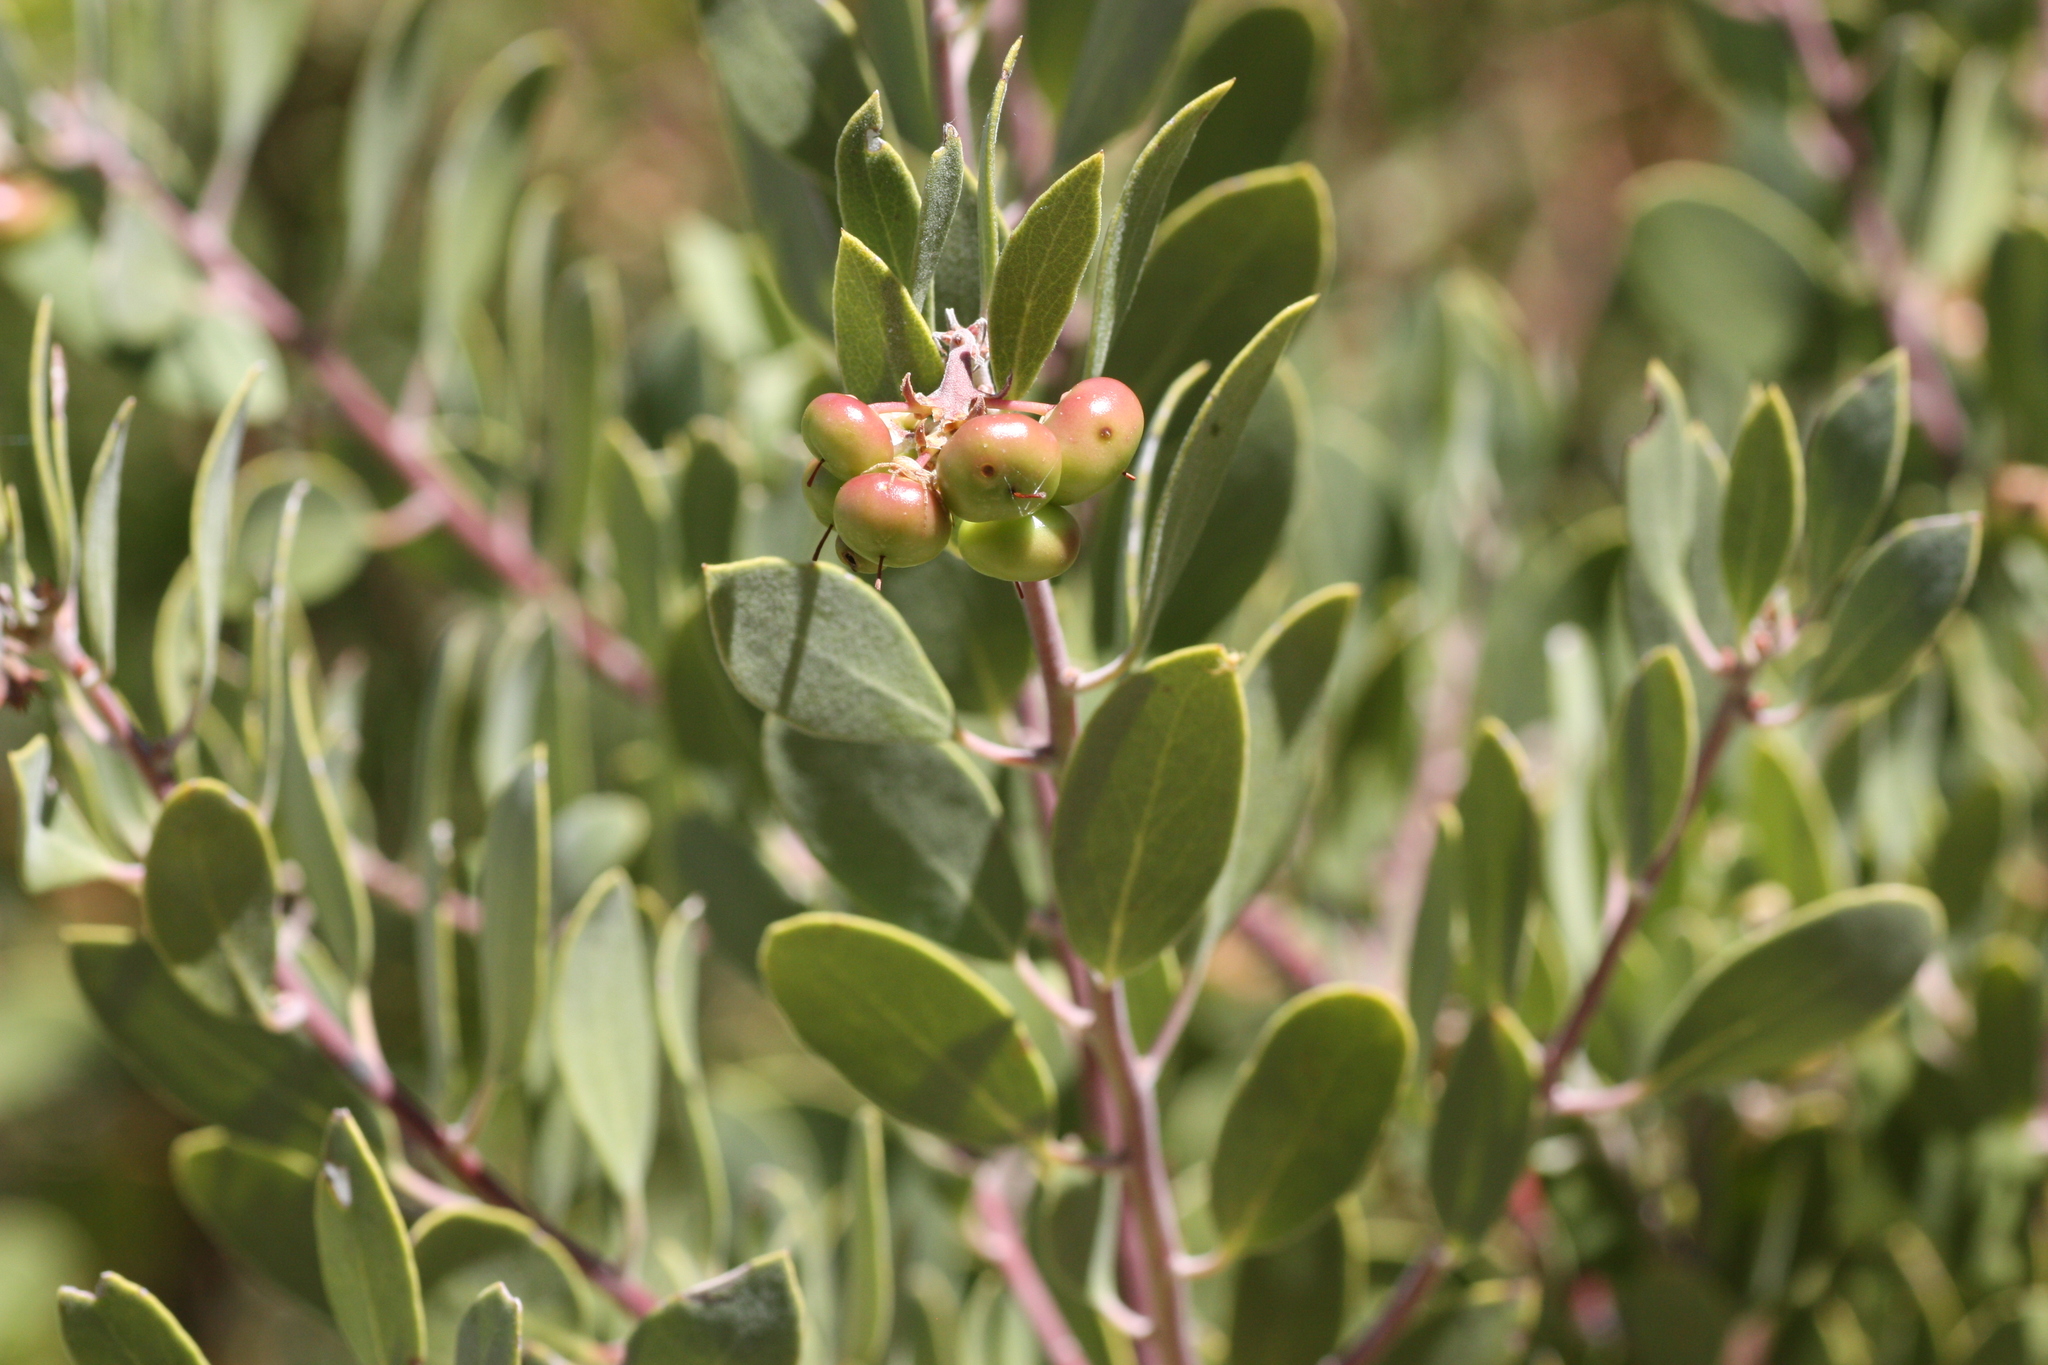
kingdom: Plantae
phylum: Tracheophyta
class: Magnoliopsida
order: Ericales
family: Ericaceae
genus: Arctostaphylos
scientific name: Arctostaphylos pungens
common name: Mexican manzanita
